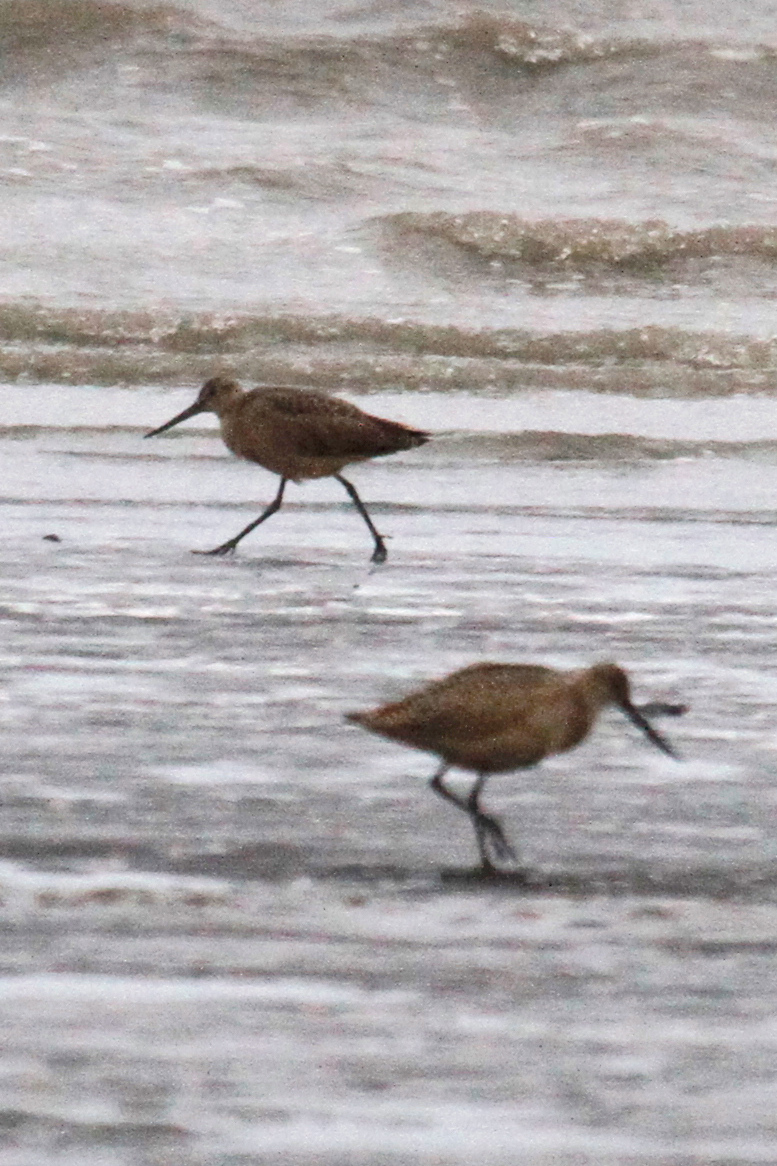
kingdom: Animalia
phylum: Chordata
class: Aves
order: Charadriiformes
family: Scolopacidae
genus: Limosa
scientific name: Limosa fedoa
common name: Marbled godwit
